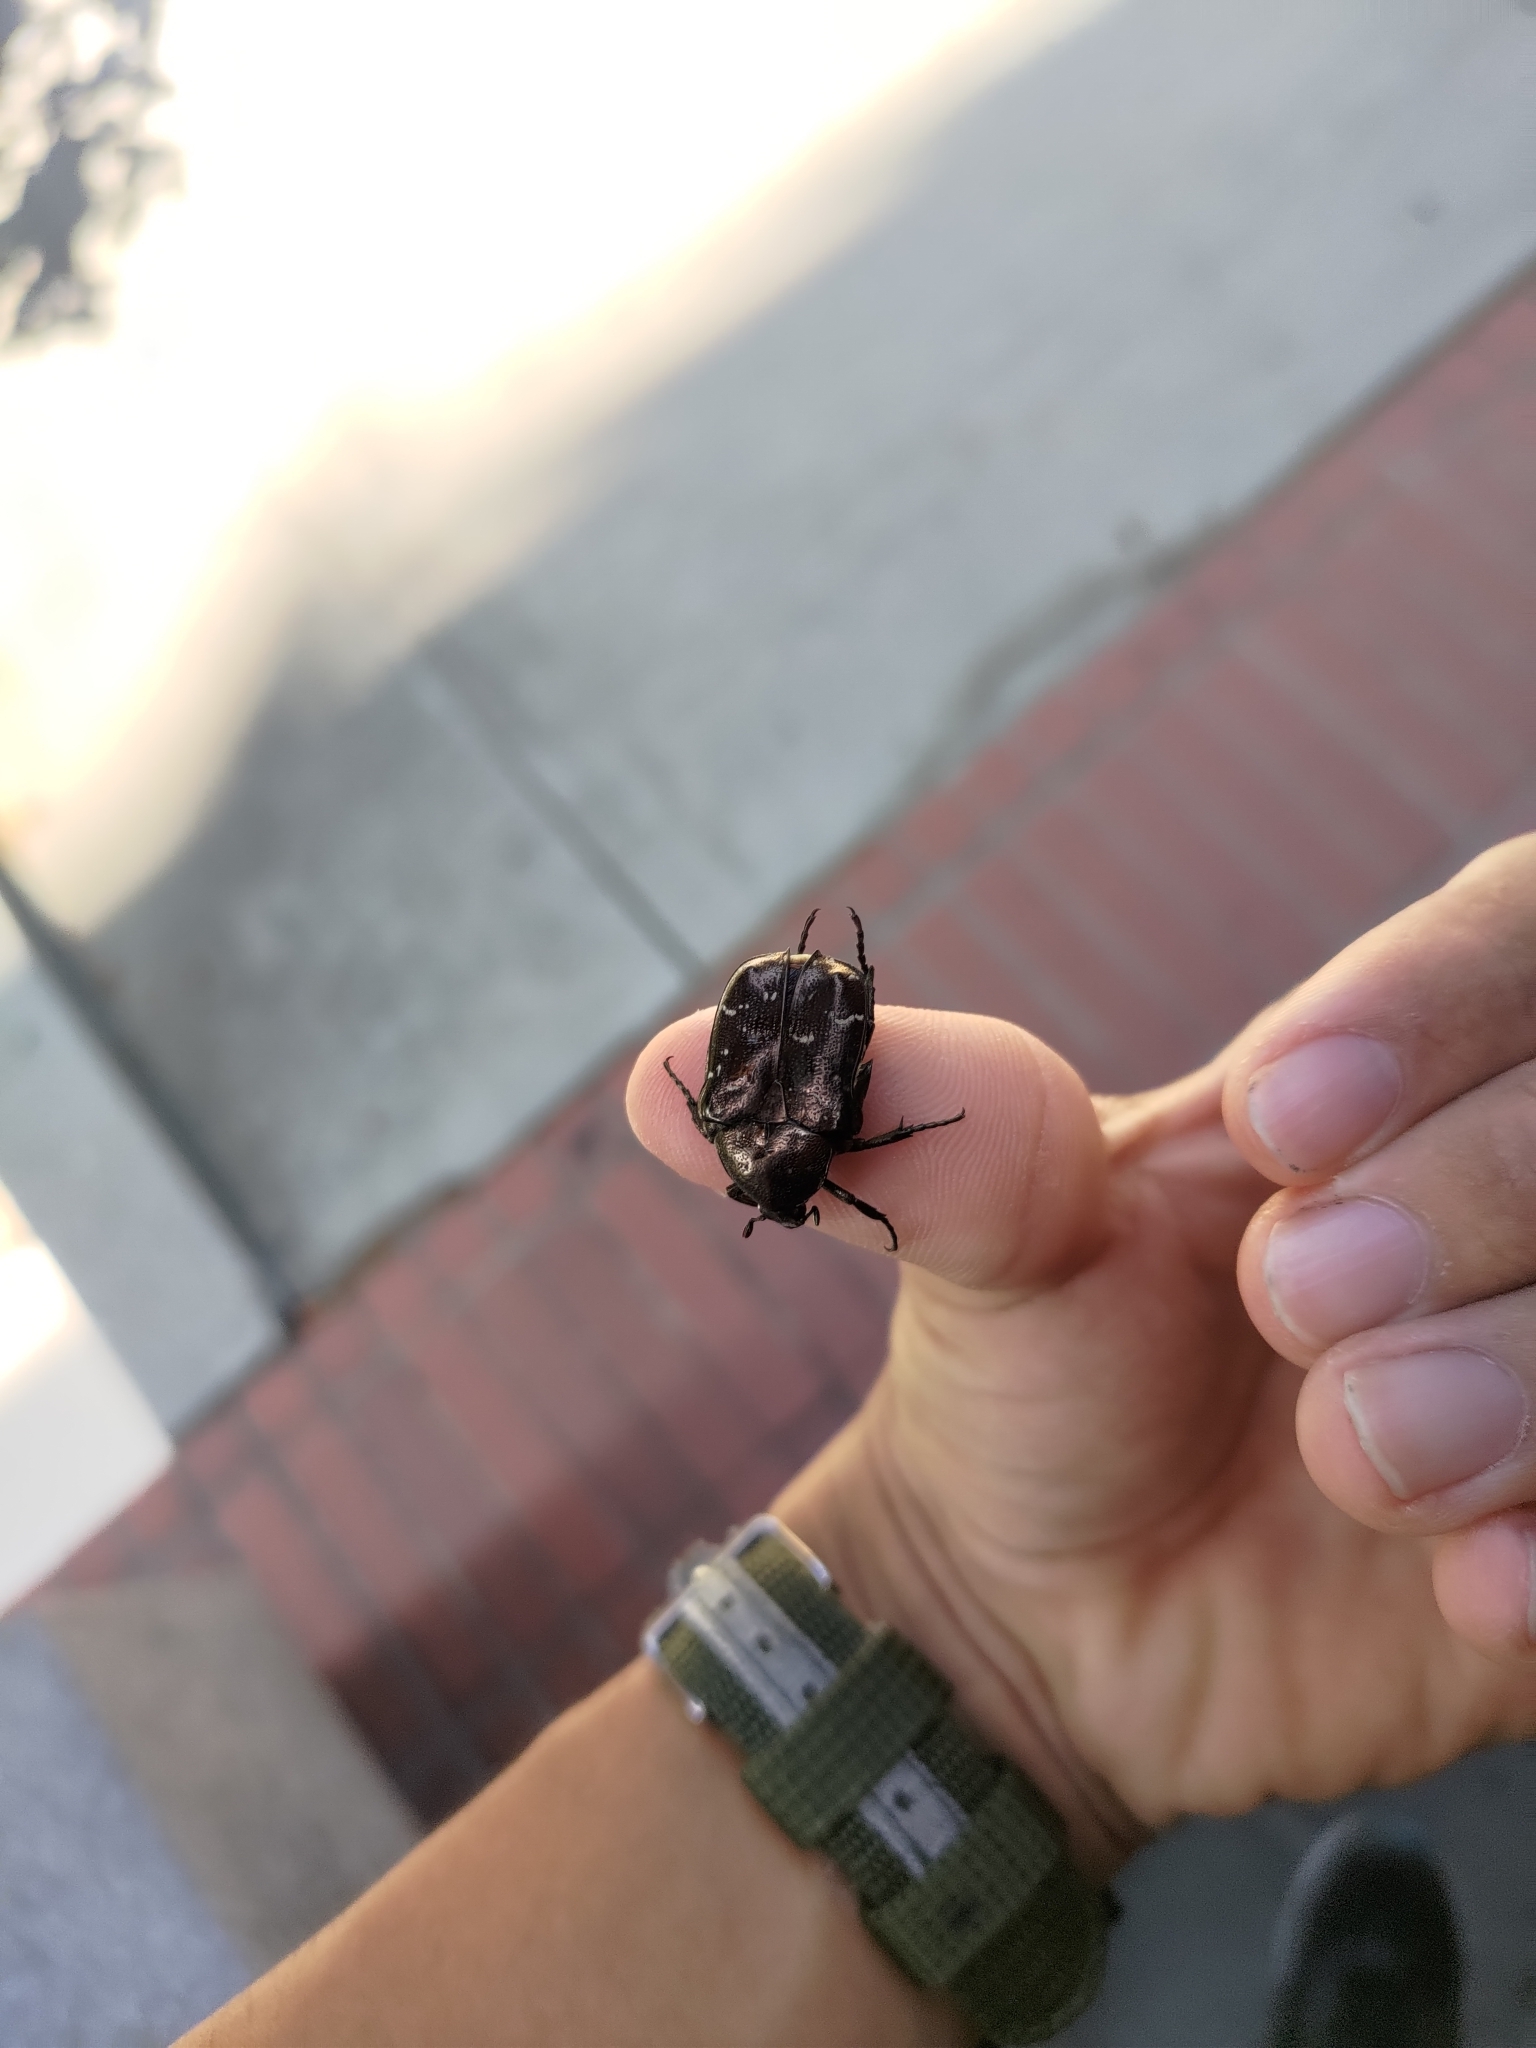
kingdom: Animalia
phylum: Arthropoda
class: Insecta
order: Coleoptera
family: Scarabaeidae
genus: Protaetia
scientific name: Protaetia orientalis
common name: Oriental flower beetle
